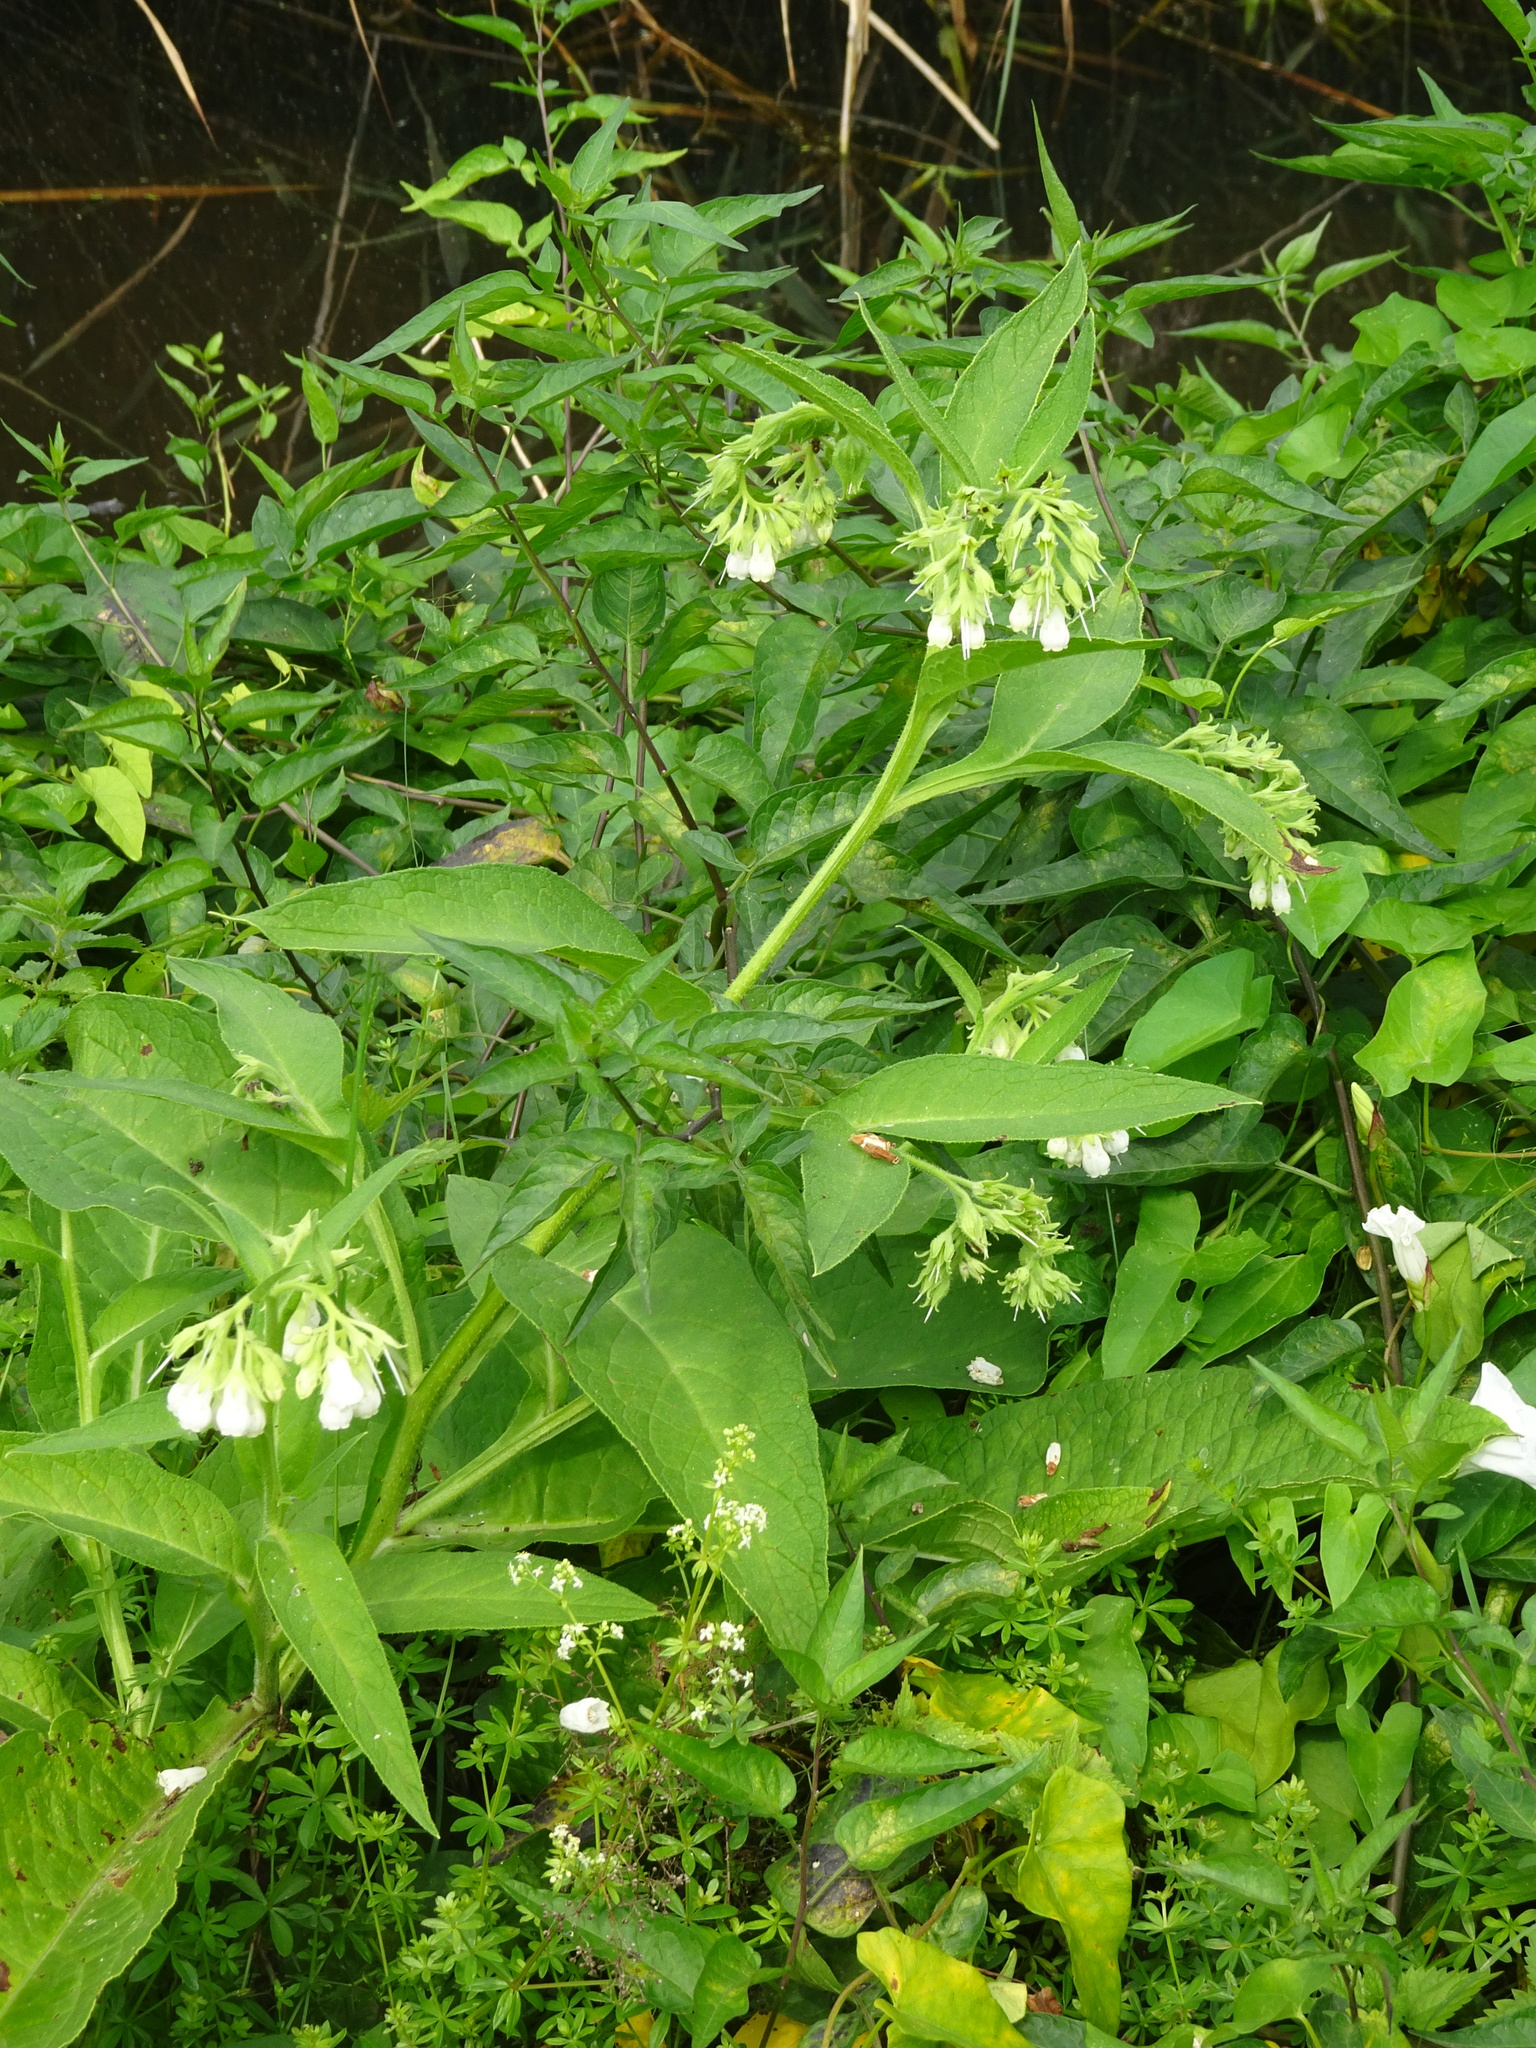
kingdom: Plantae
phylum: Tracheophyta
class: Magnoliopsida
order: Boraginales
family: Boraginaceae
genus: Symphytum
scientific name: Symphytum officinale
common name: Common comfrey
